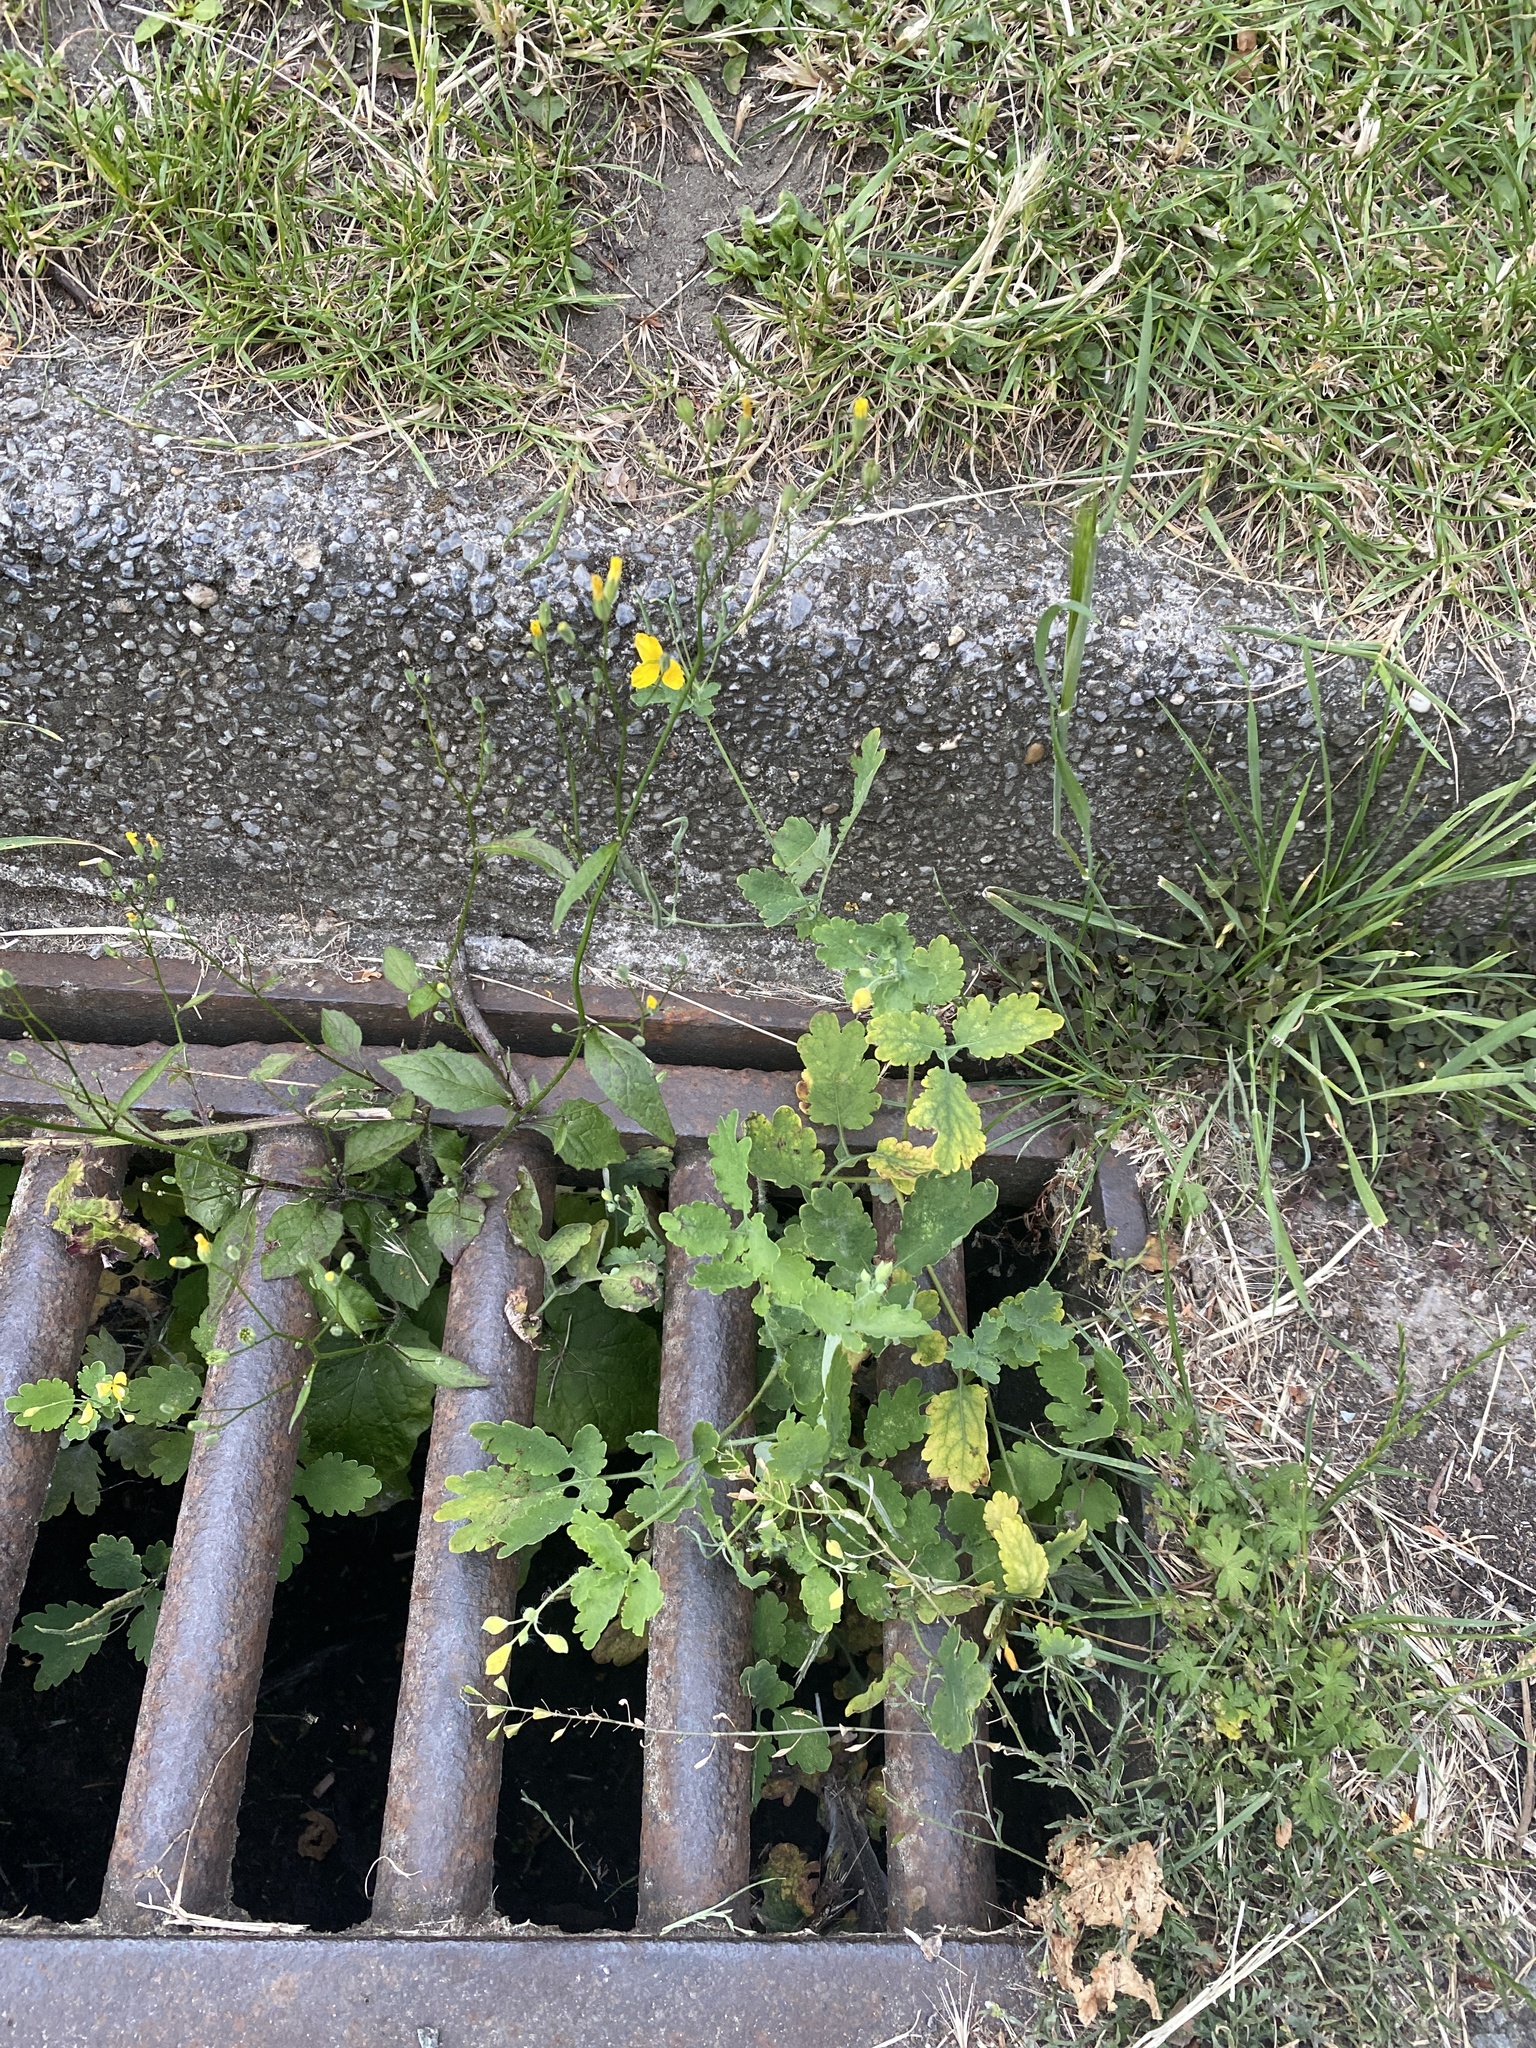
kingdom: Plantae
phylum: Tracheophyta
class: Magnoliopsida
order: Ranunculales
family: Papaveraceae
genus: Chelidonium
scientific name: Chelidonium majus
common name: Greater celandine
